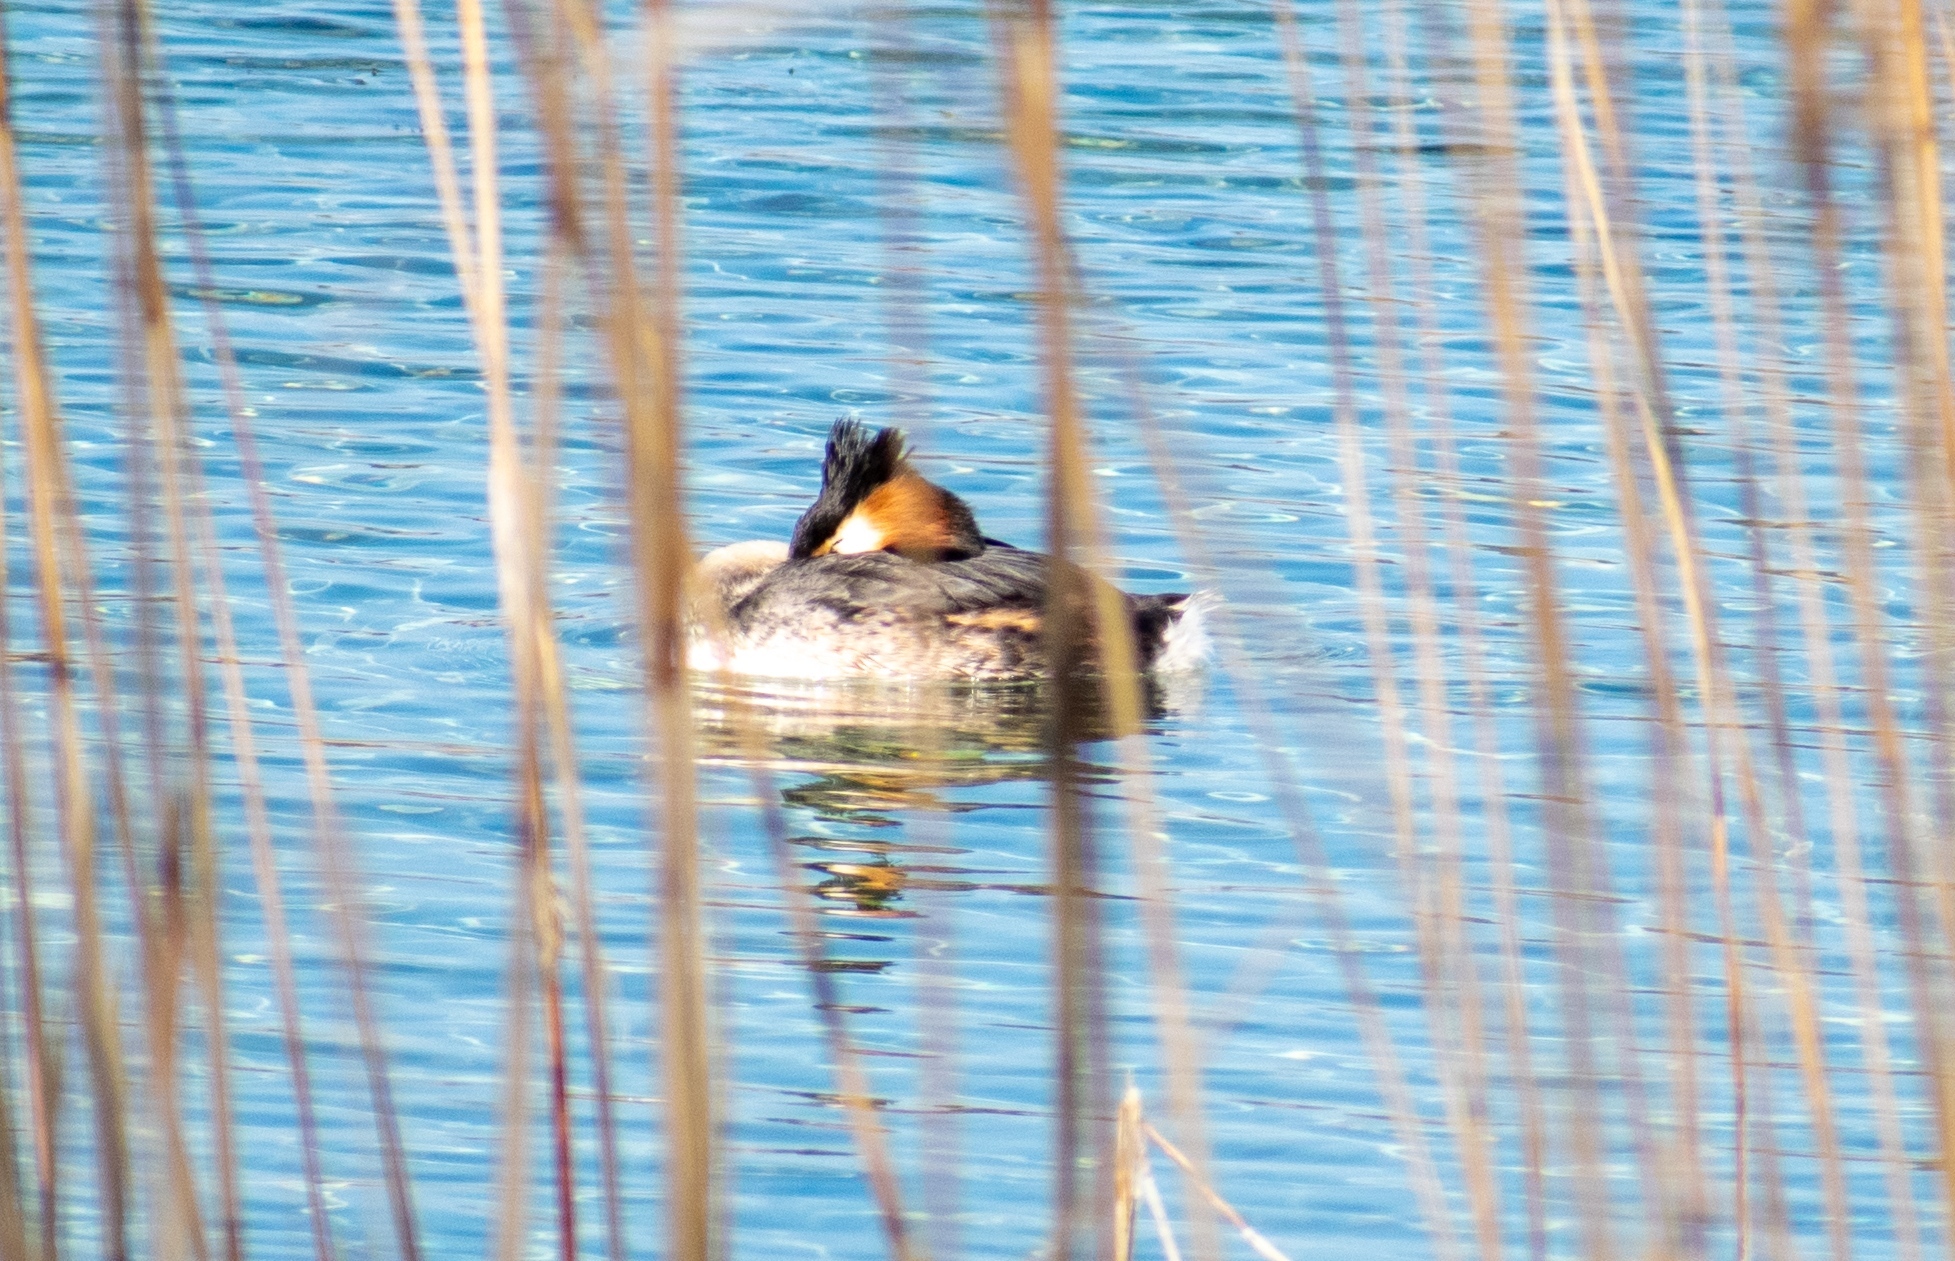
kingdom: Animalia
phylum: Chordata
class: Aves
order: Podicipediformes
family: Podicipedidae
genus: Podiceps
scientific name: Podiceps cristatus
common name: Great crested grebe
